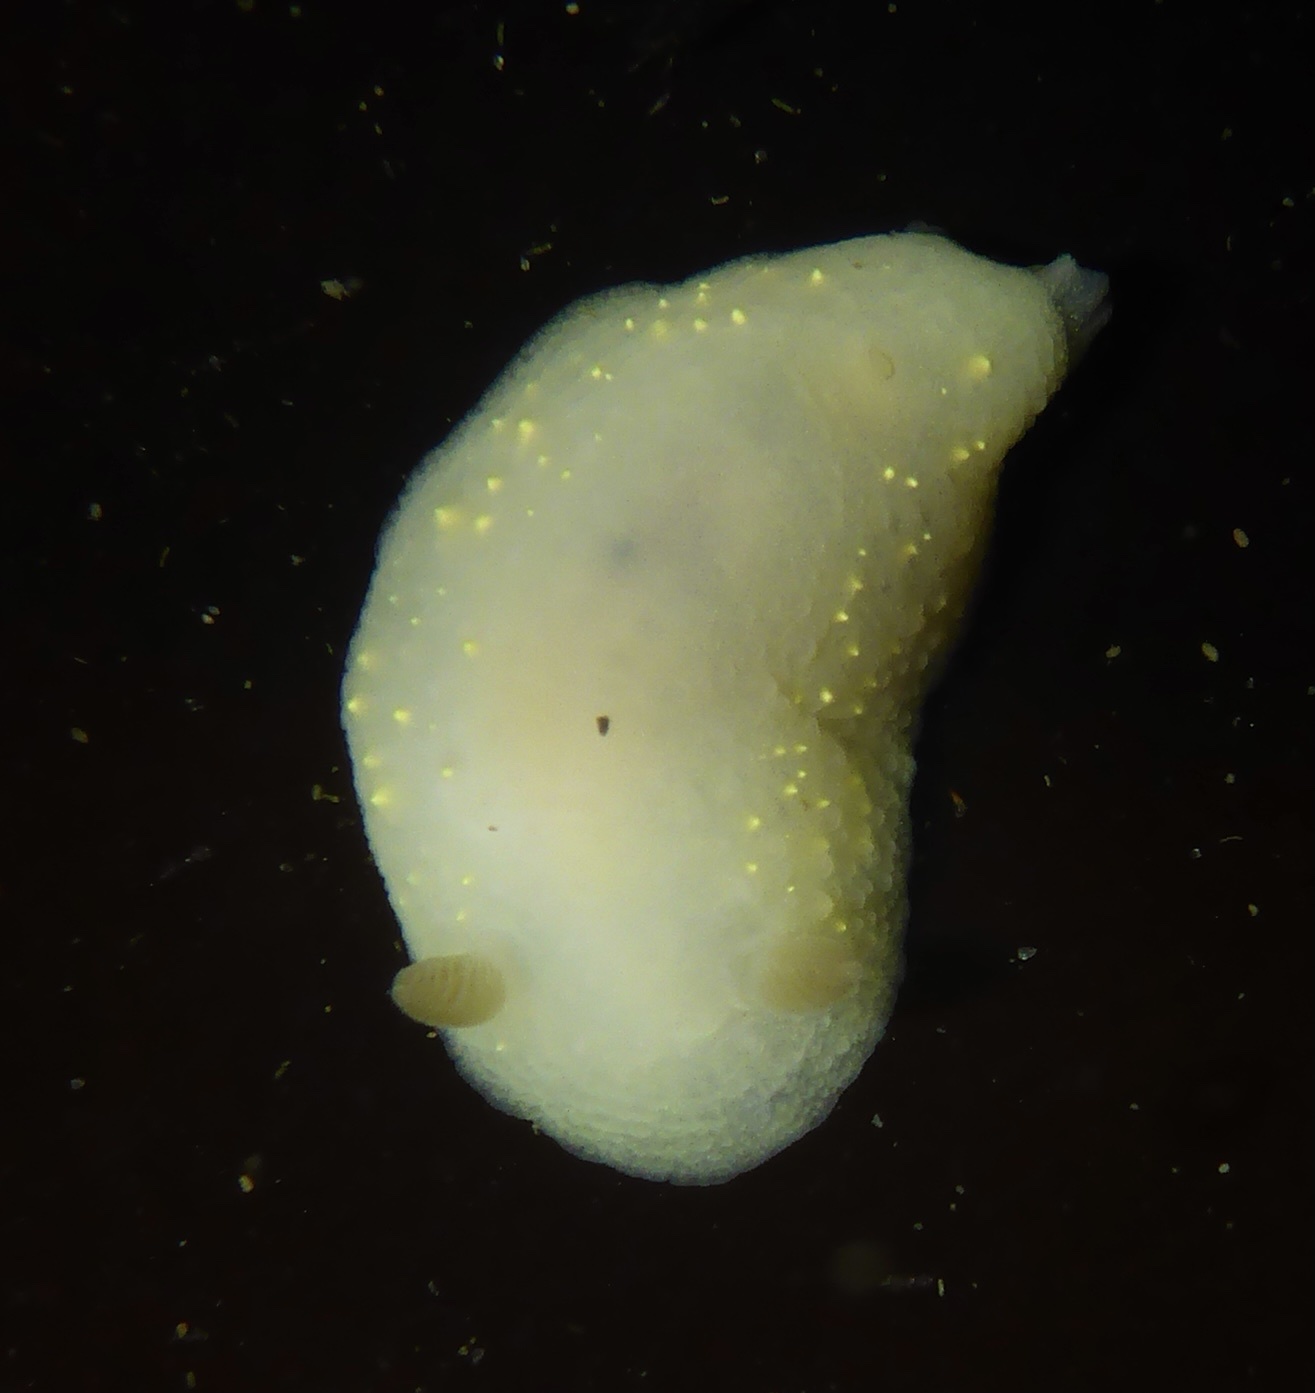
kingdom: Animalia
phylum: Mollusca
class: Gastropoda
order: Nudibranchia
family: Cadlinidae
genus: Cadlina
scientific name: Cadlina modesta
